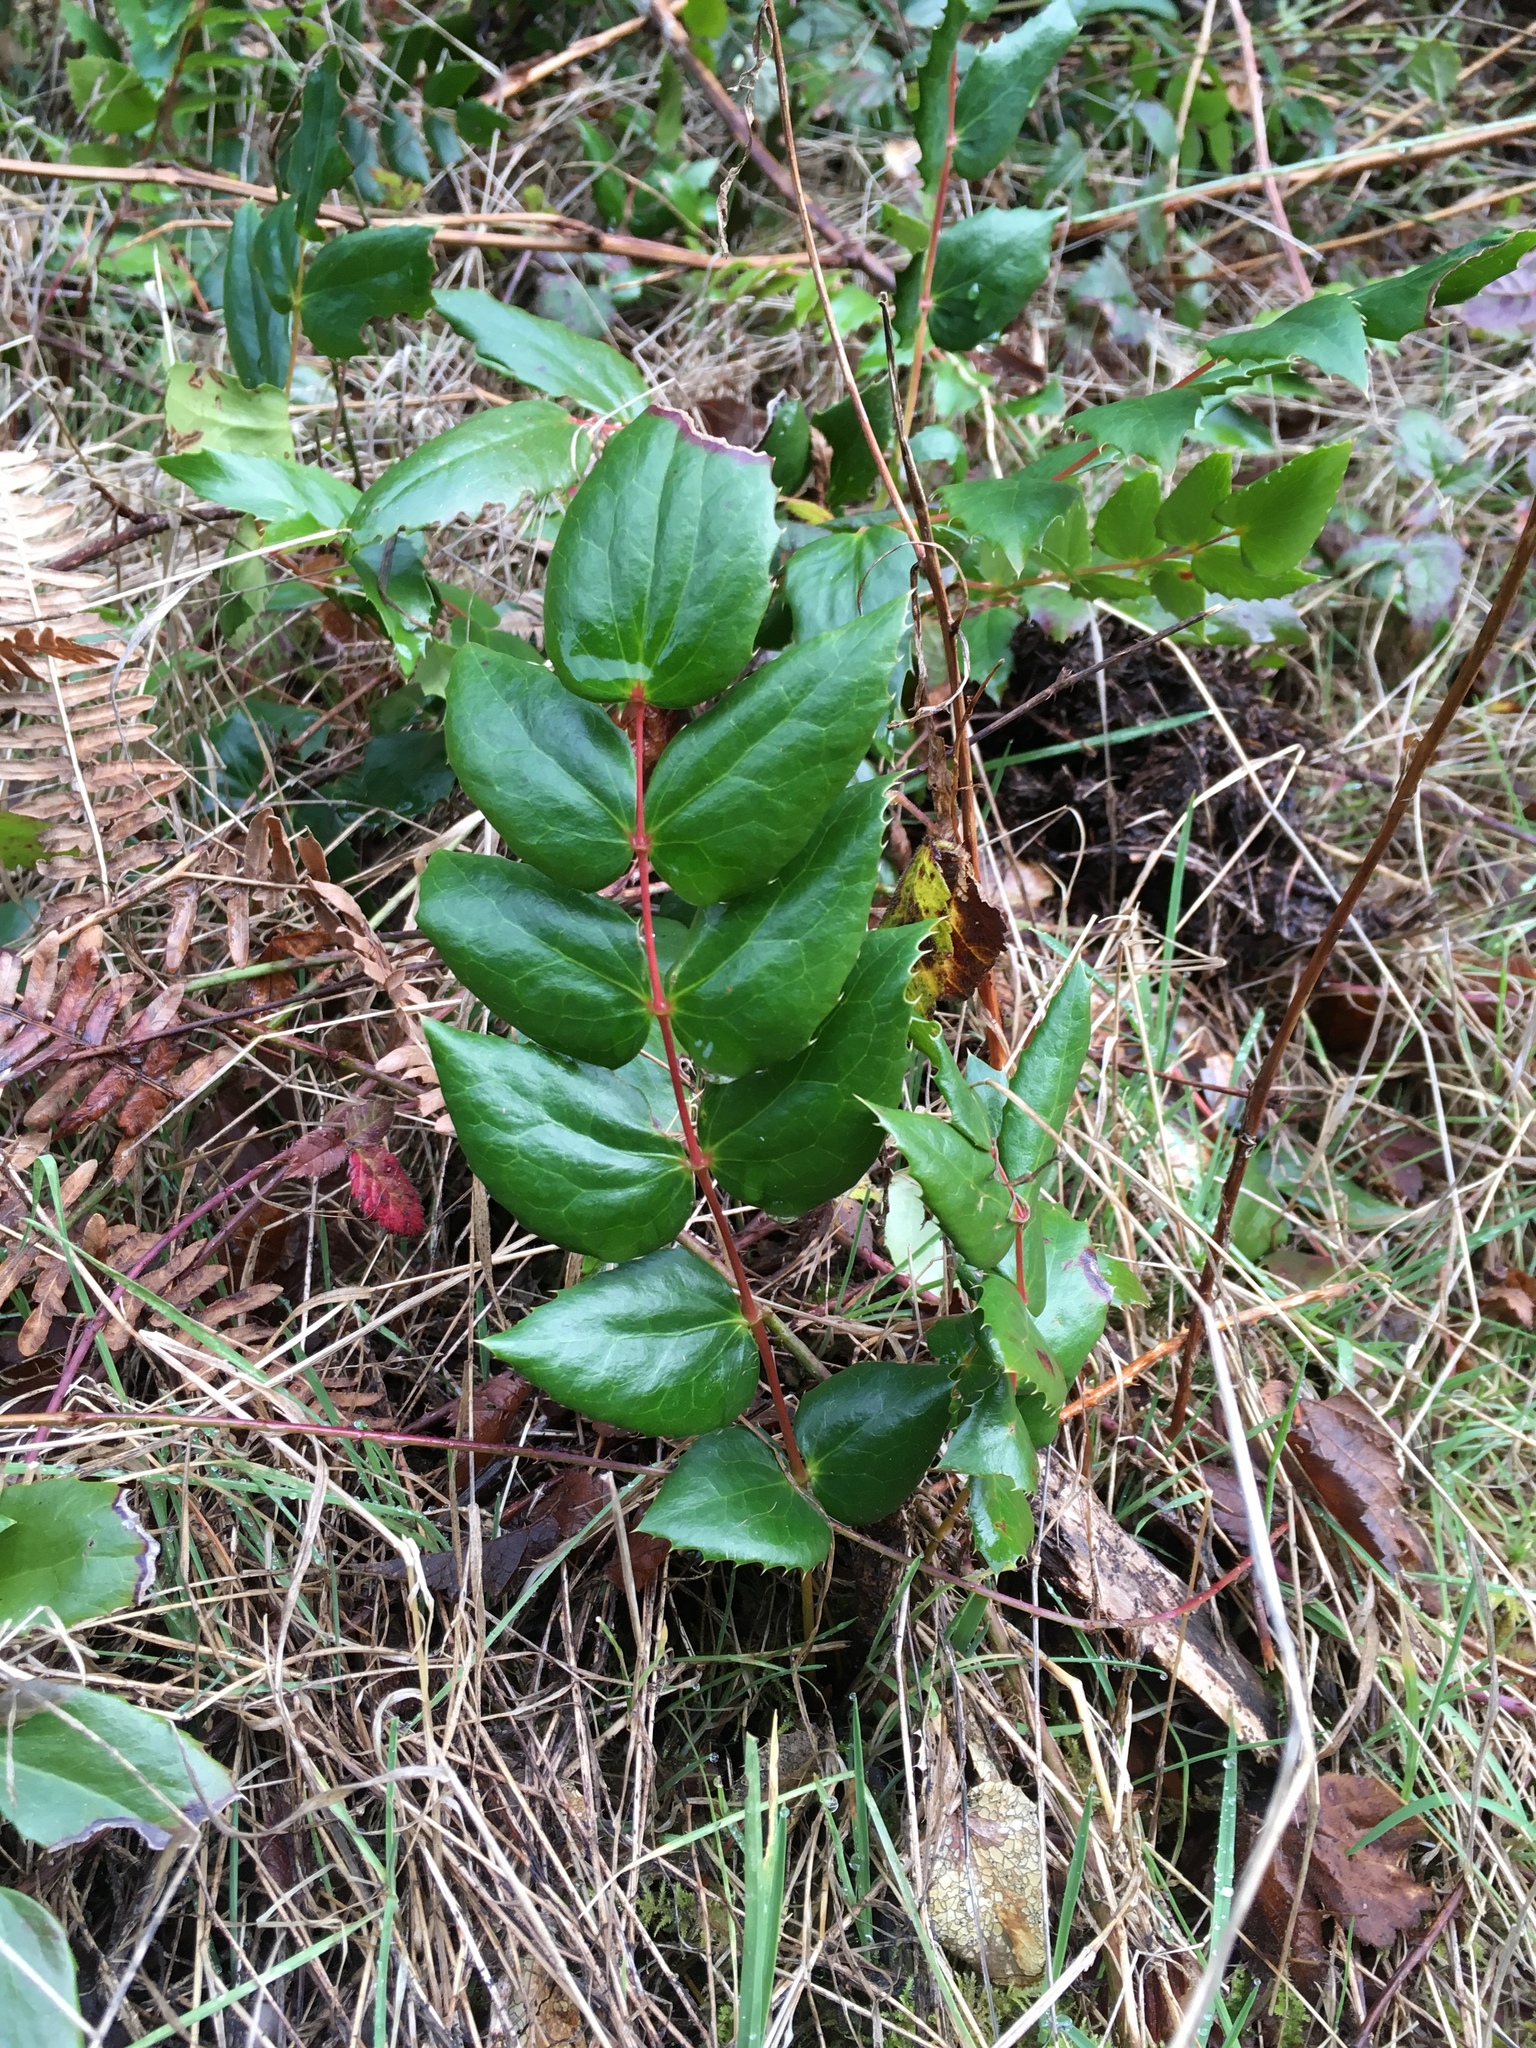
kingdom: Plantae
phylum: Tracheophyta
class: Magnoliopsida
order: Ranunculales
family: Berberidaceae
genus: Mahonia
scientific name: Mahonia nervosa
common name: Cascade oregon-grape
